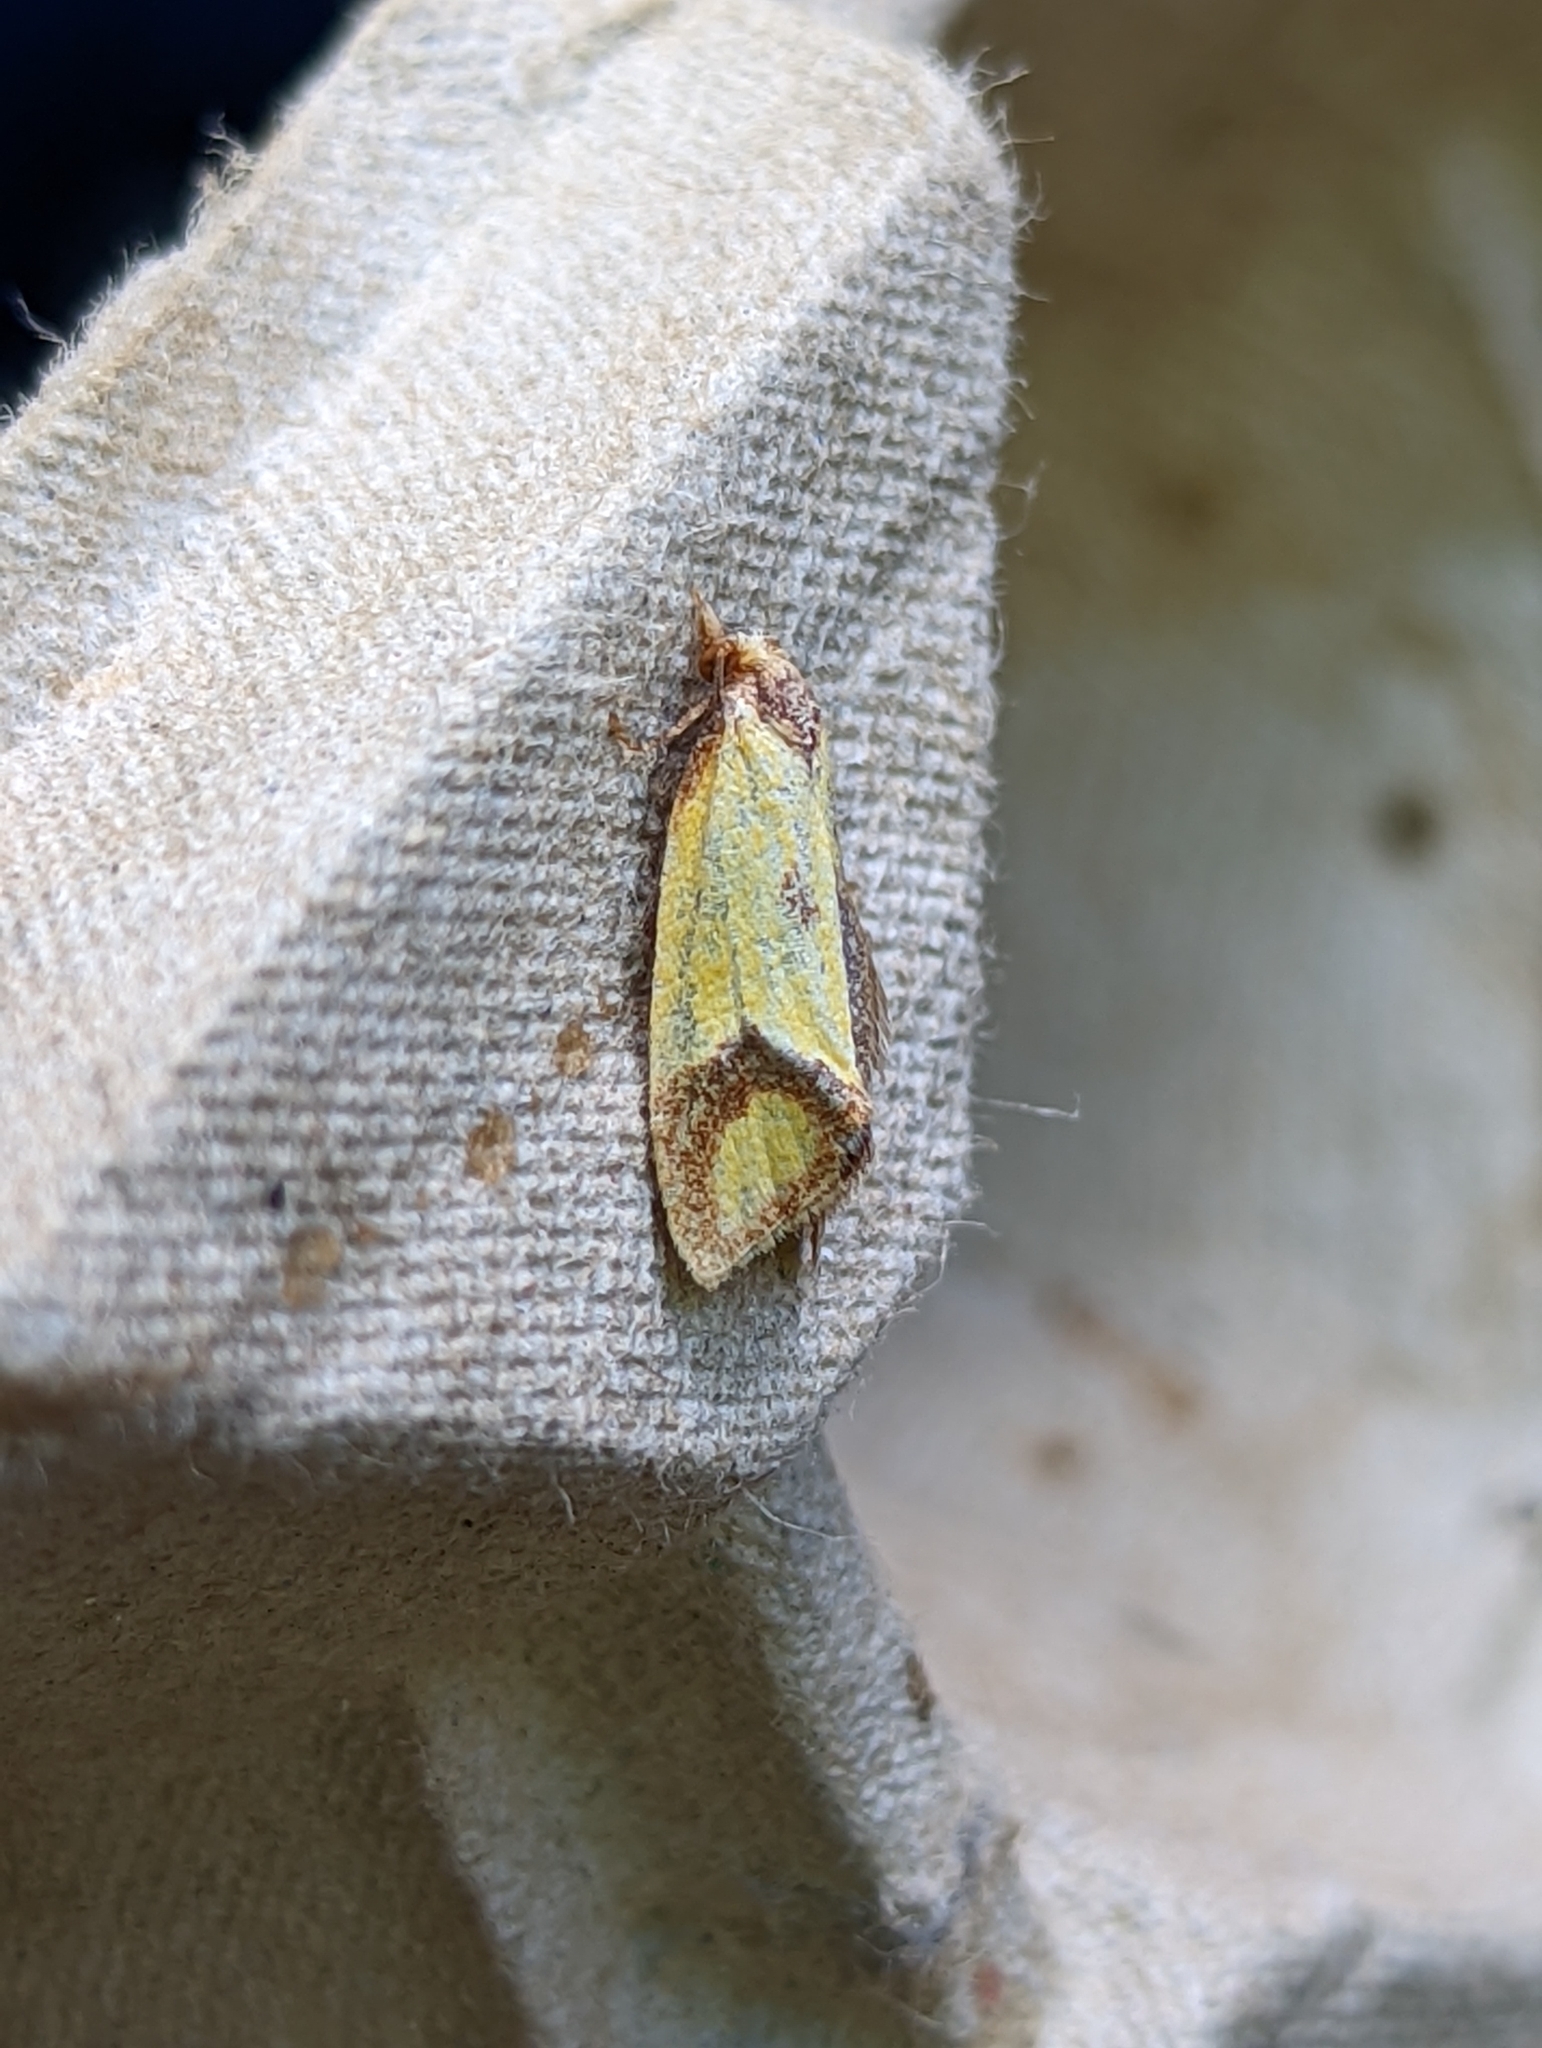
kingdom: Animalia
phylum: Arthropoda
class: Insecta
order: Lepidoptera
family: Tortricidae
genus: Agapeta
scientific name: Agapeta zoegana
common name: Sulfur knapweed root moth
